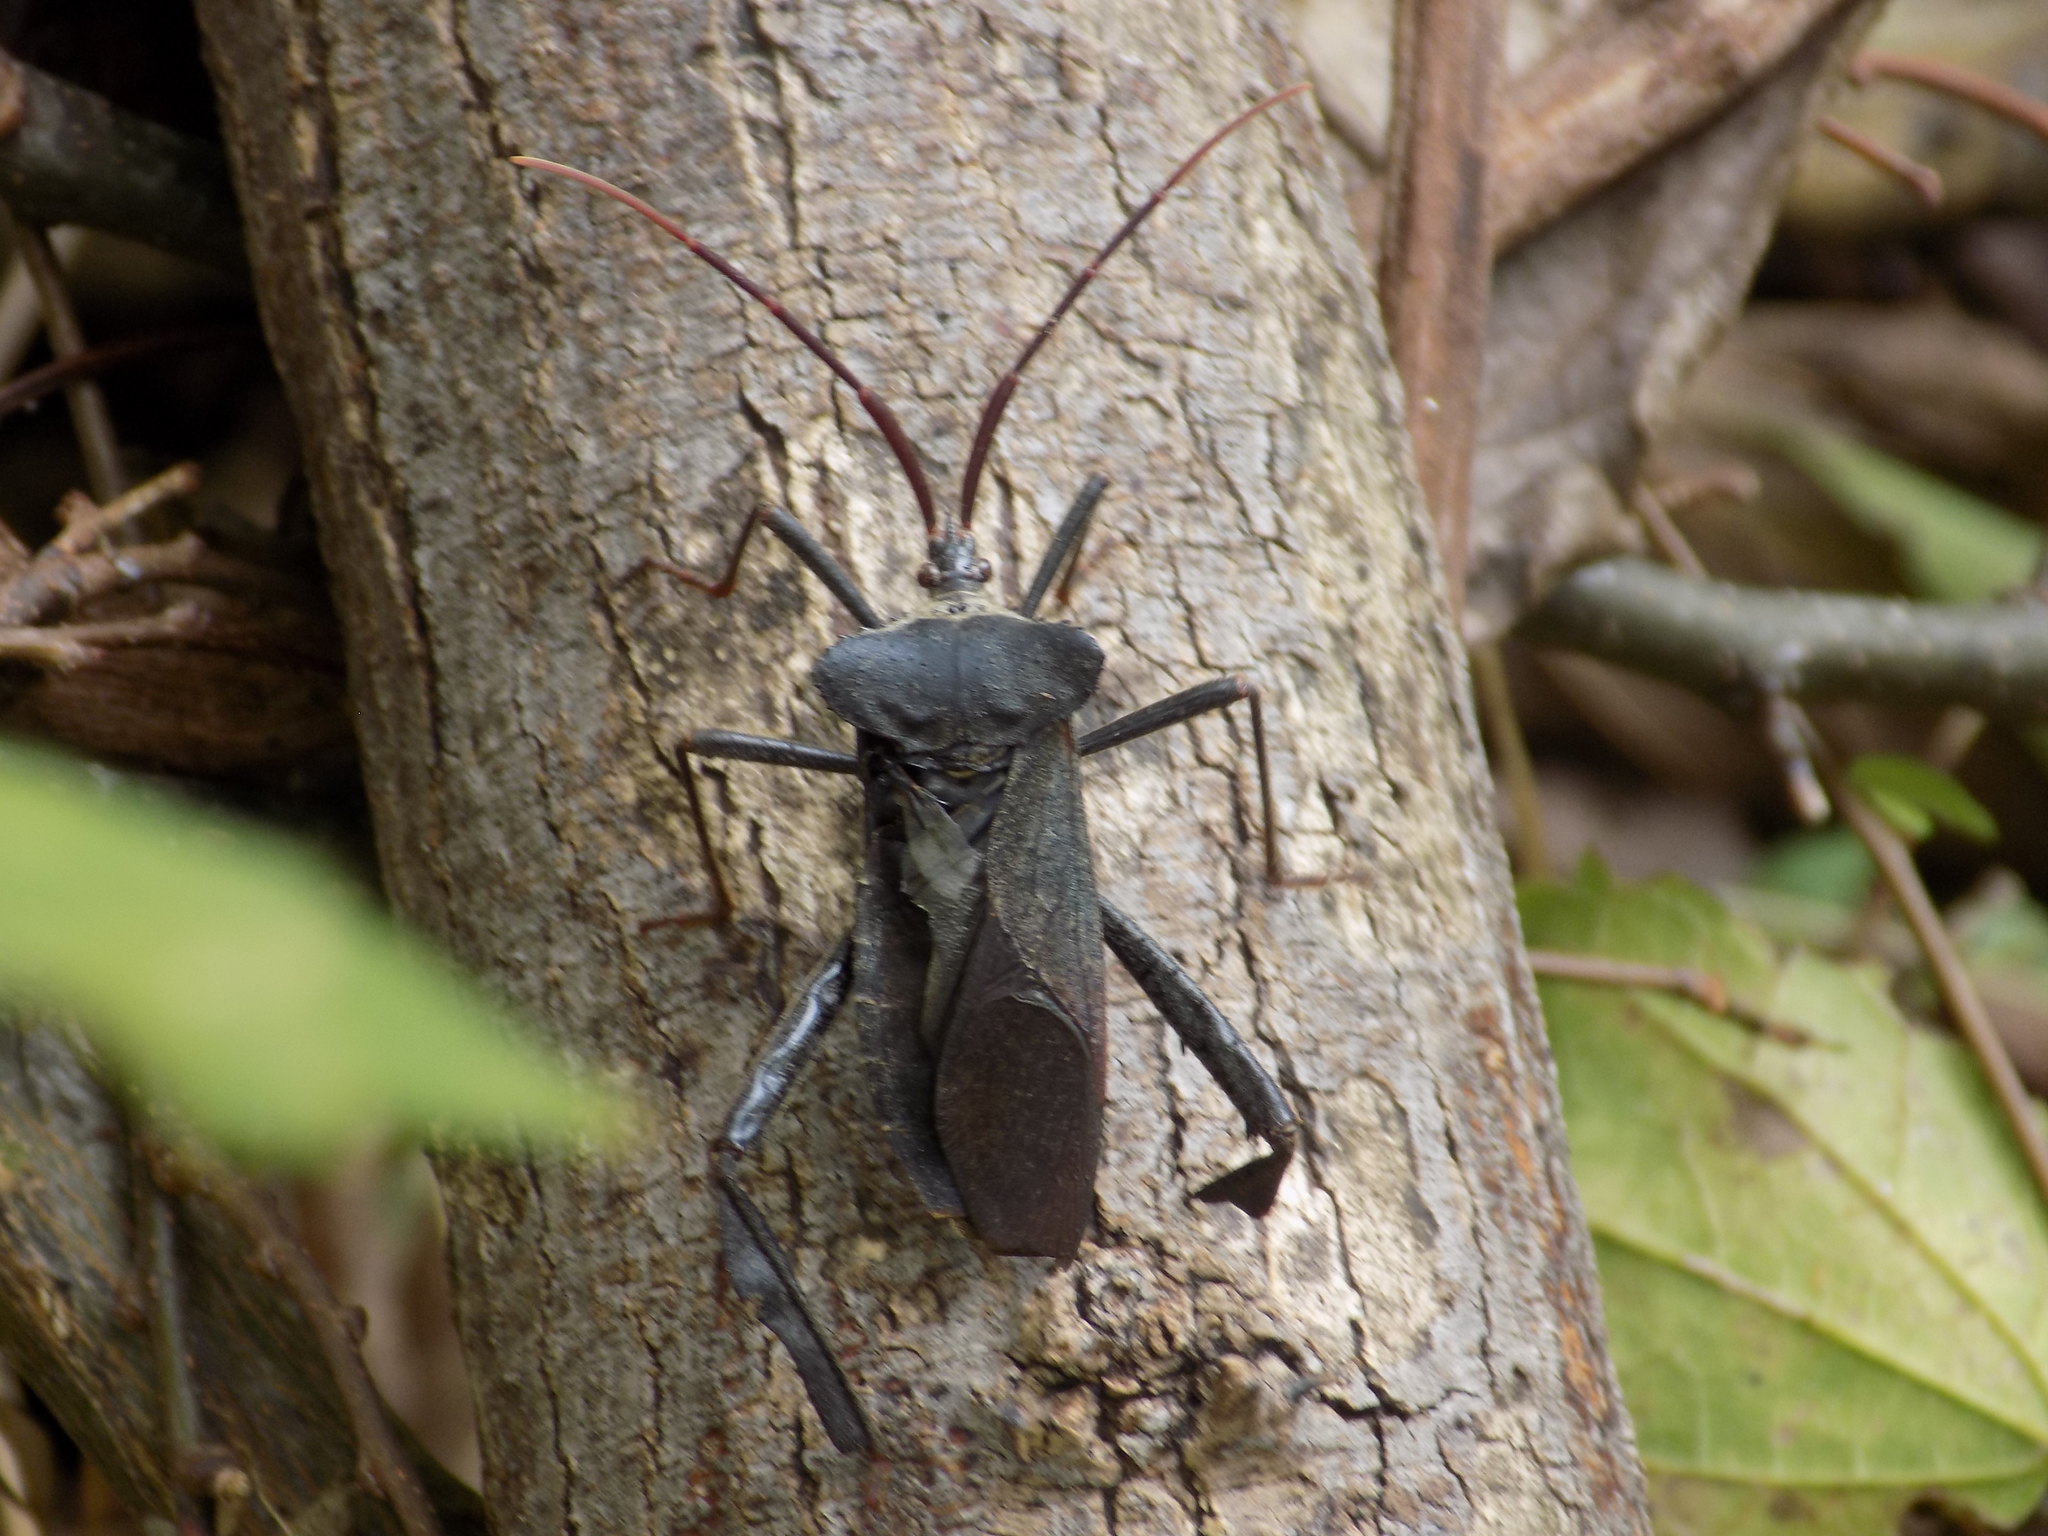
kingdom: Animalia
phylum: Arthropoda
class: Insecta
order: Hemiptera
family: Coreidae
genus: Acanthocephala
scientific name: Acanthocephala declivis
